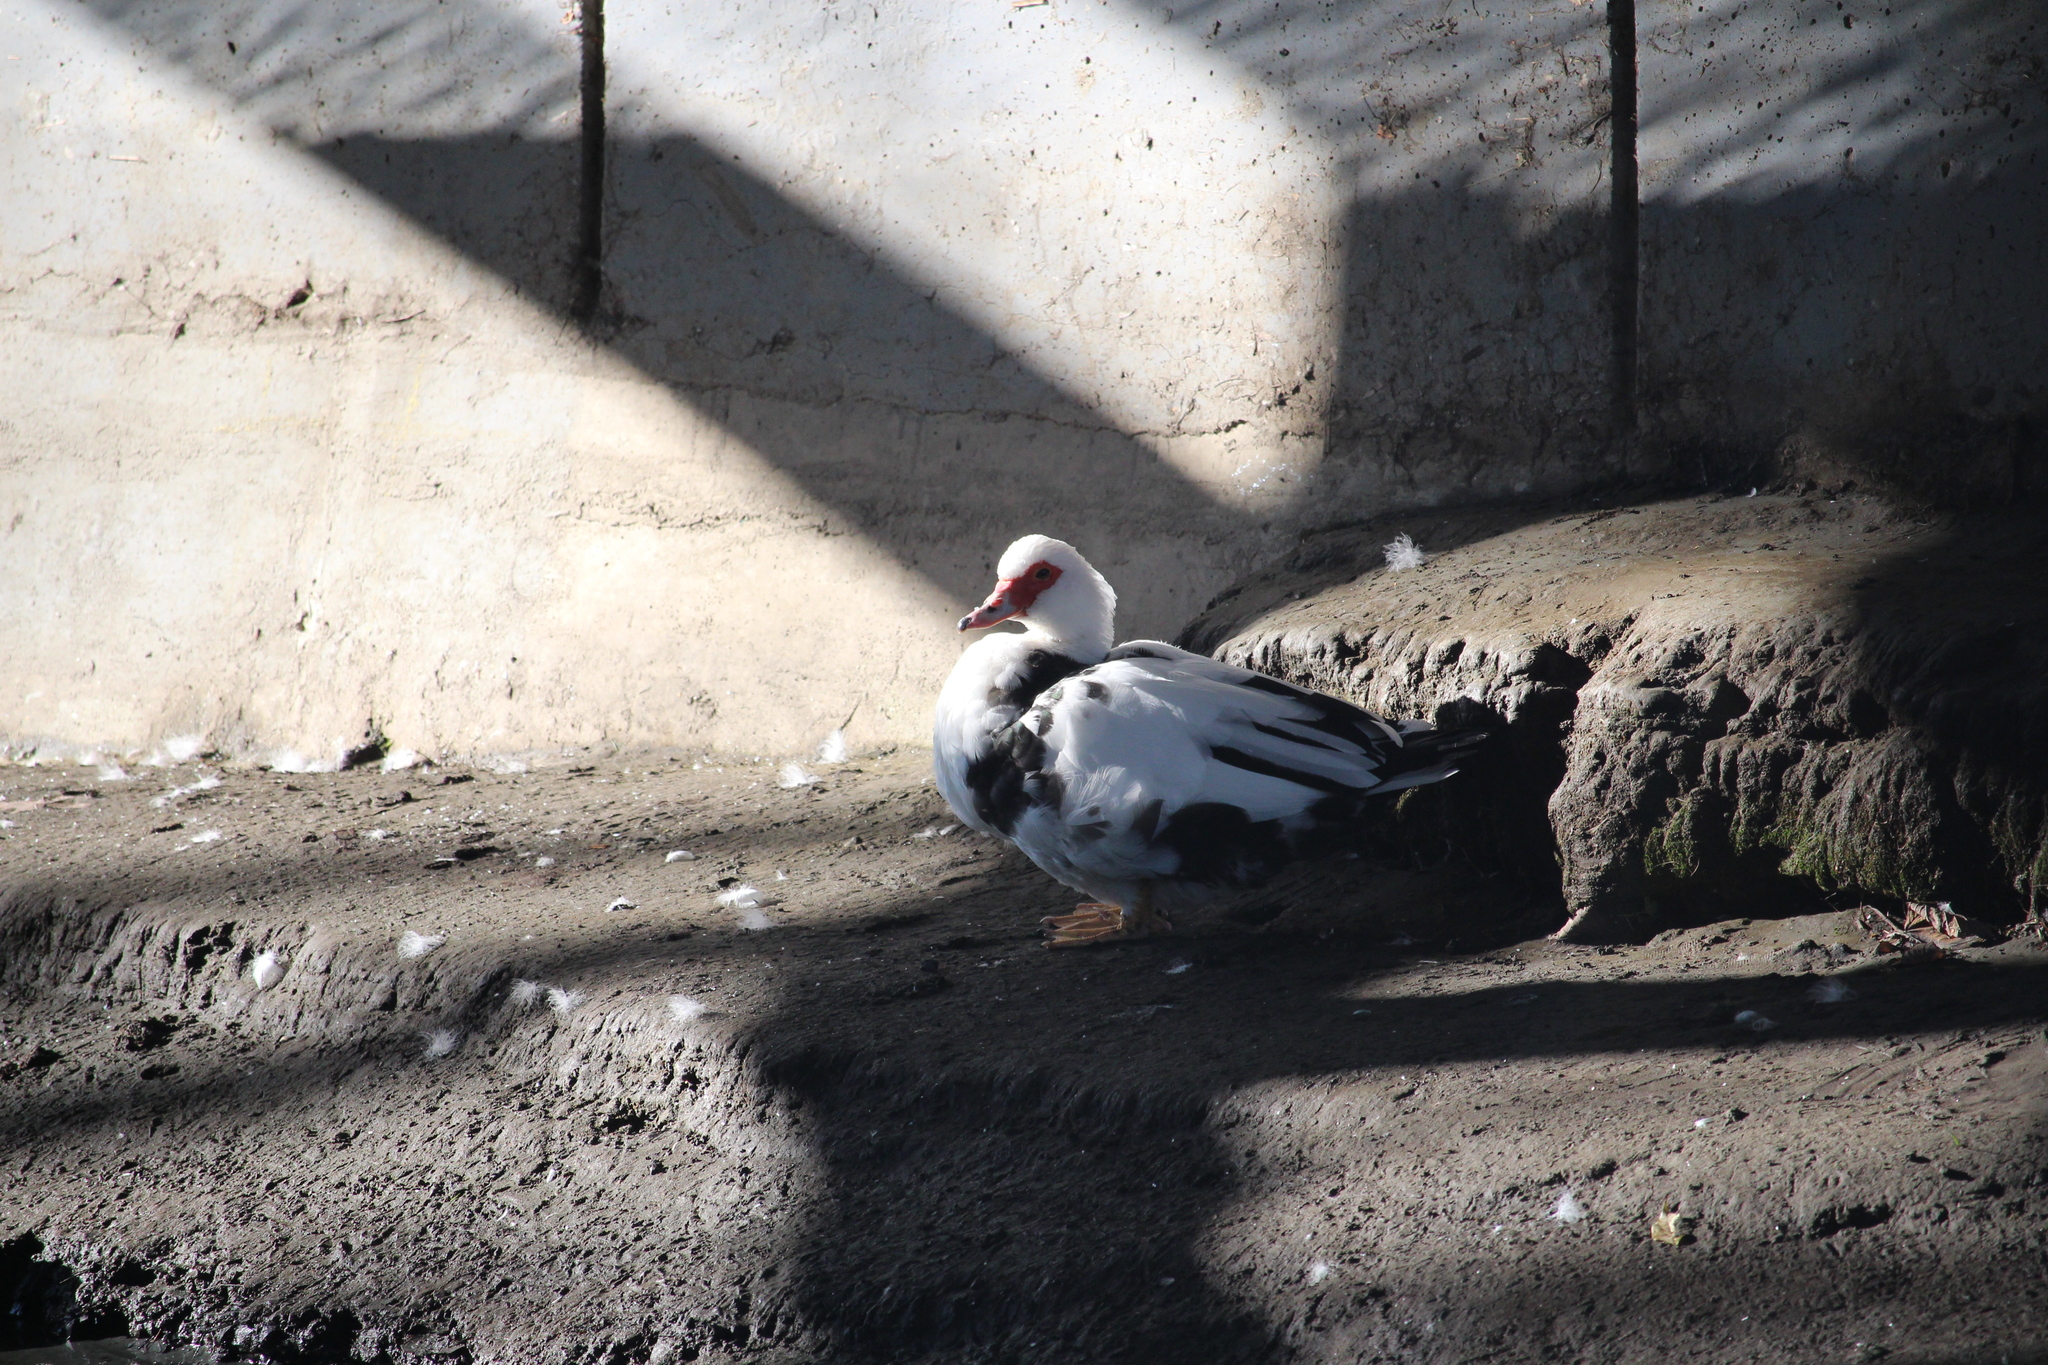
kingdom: Animalia
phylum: Chordata
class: Aves
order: Anseriformes
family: Anatidae
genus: Cairina
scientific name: Cairina moschata
